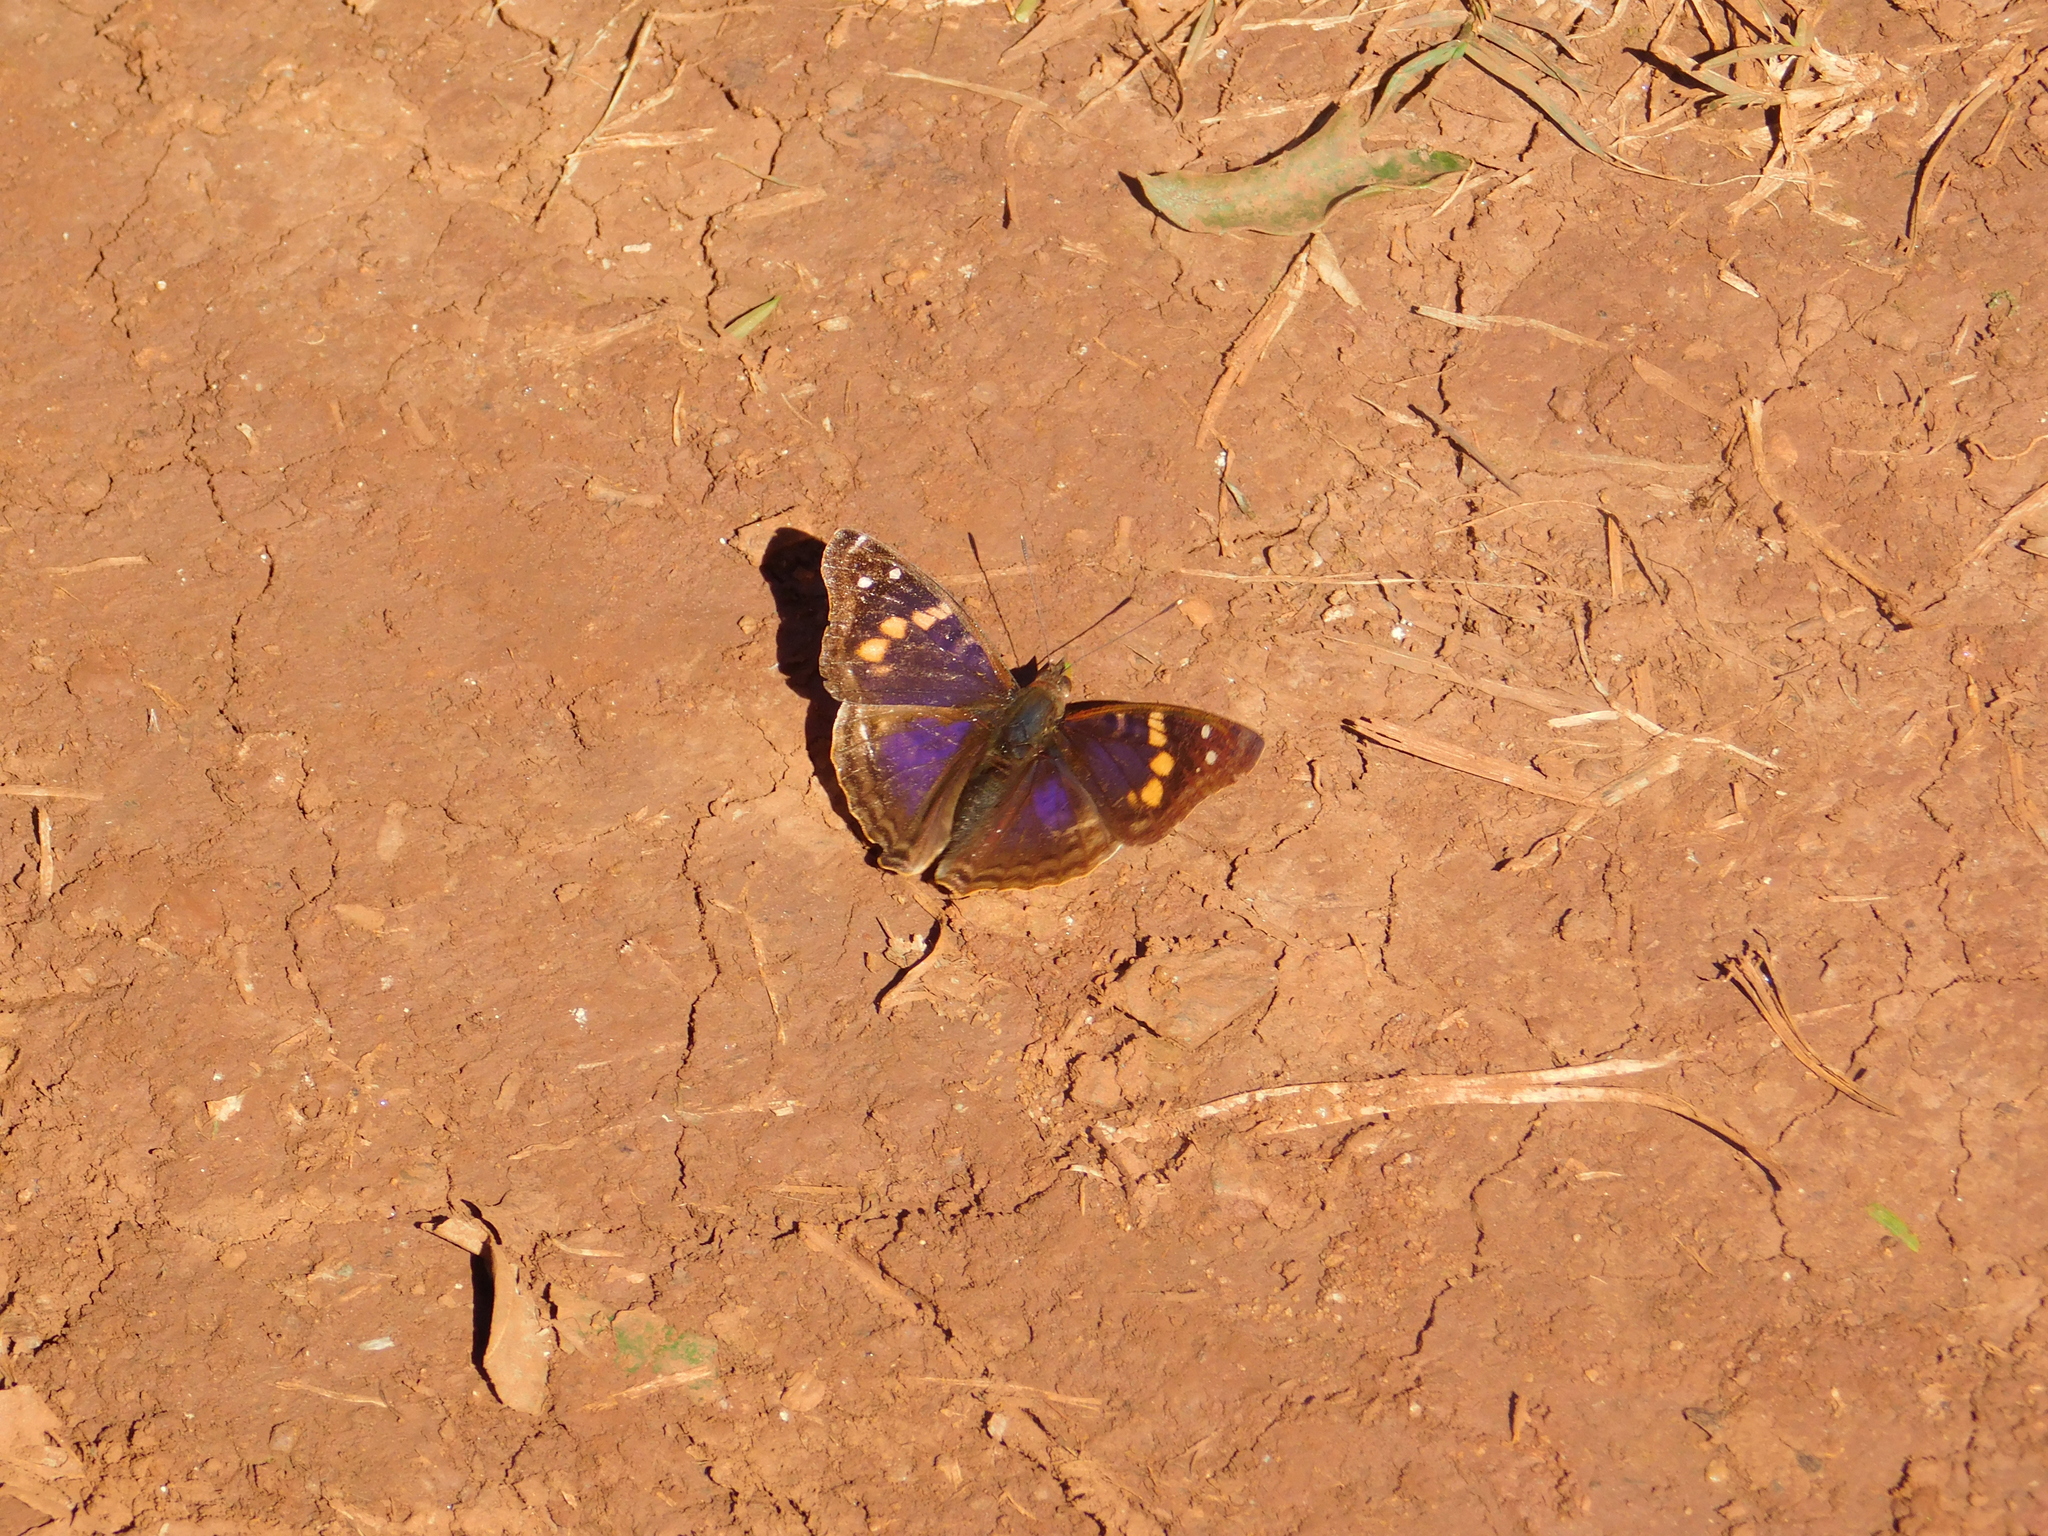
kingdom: Animalia
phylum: Arthropoda
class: Insecta
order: Lepidoptera
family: Nymphalidae
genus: Doxocopa
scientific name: Doxocopa agathina
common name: Agathina emperor
